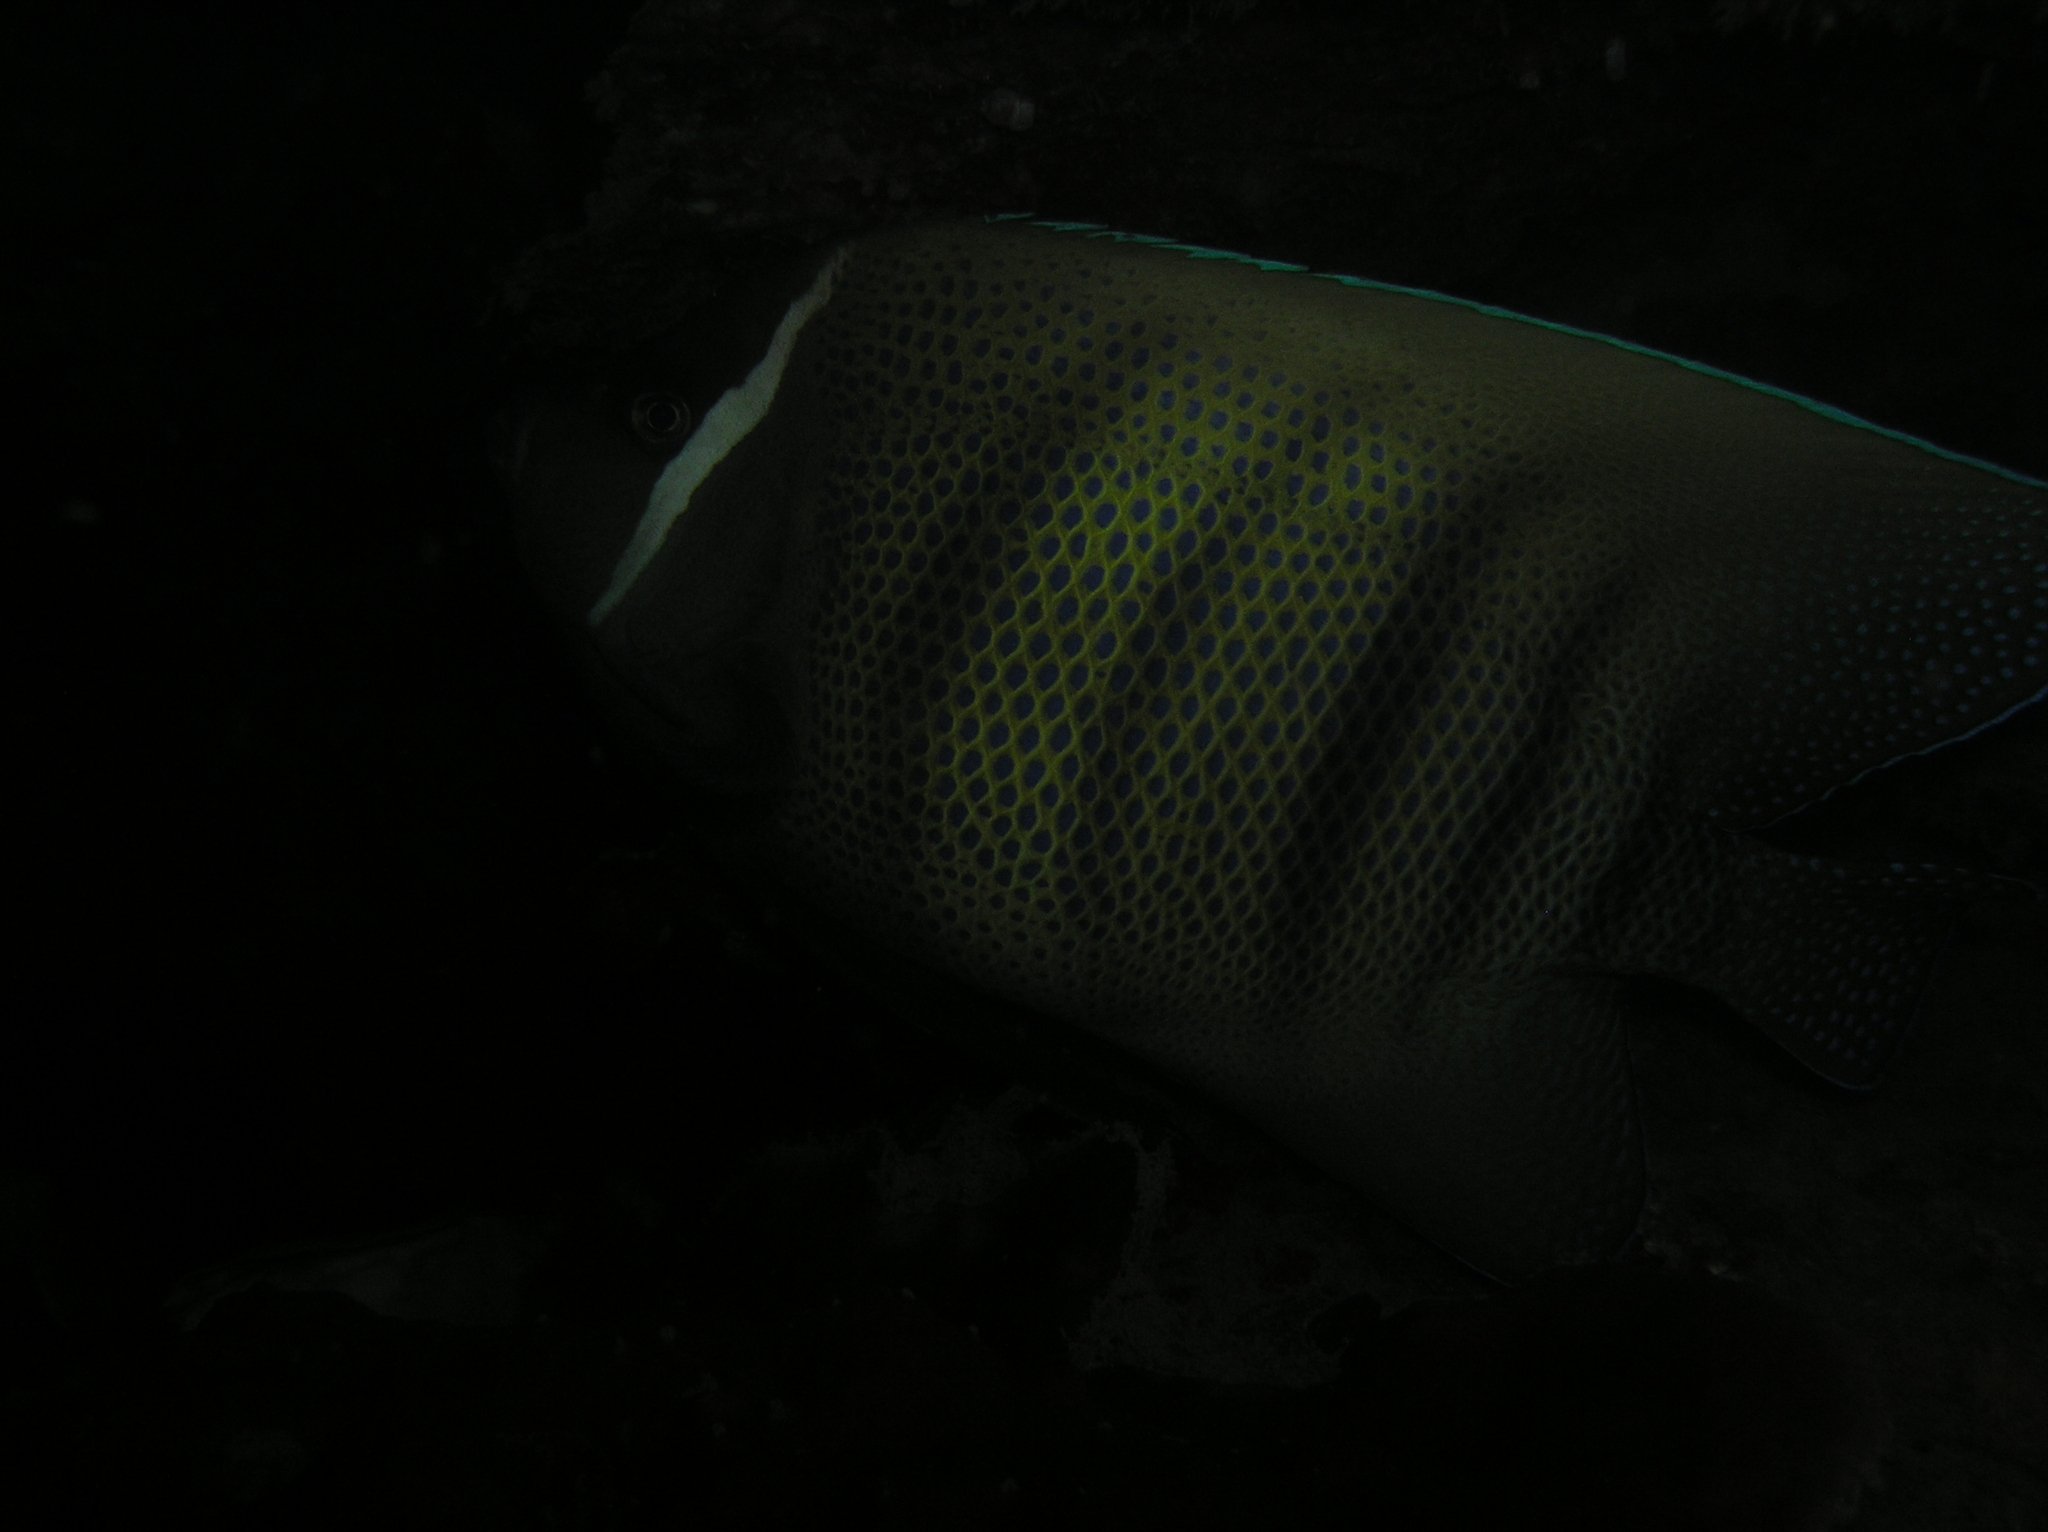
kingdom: Animalia
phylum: Chordata
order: Perciformes
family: Pomacanthidae
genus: Pomacanthus
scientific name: Pomacanthus sexstriatus
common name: Six-banded angelfish
